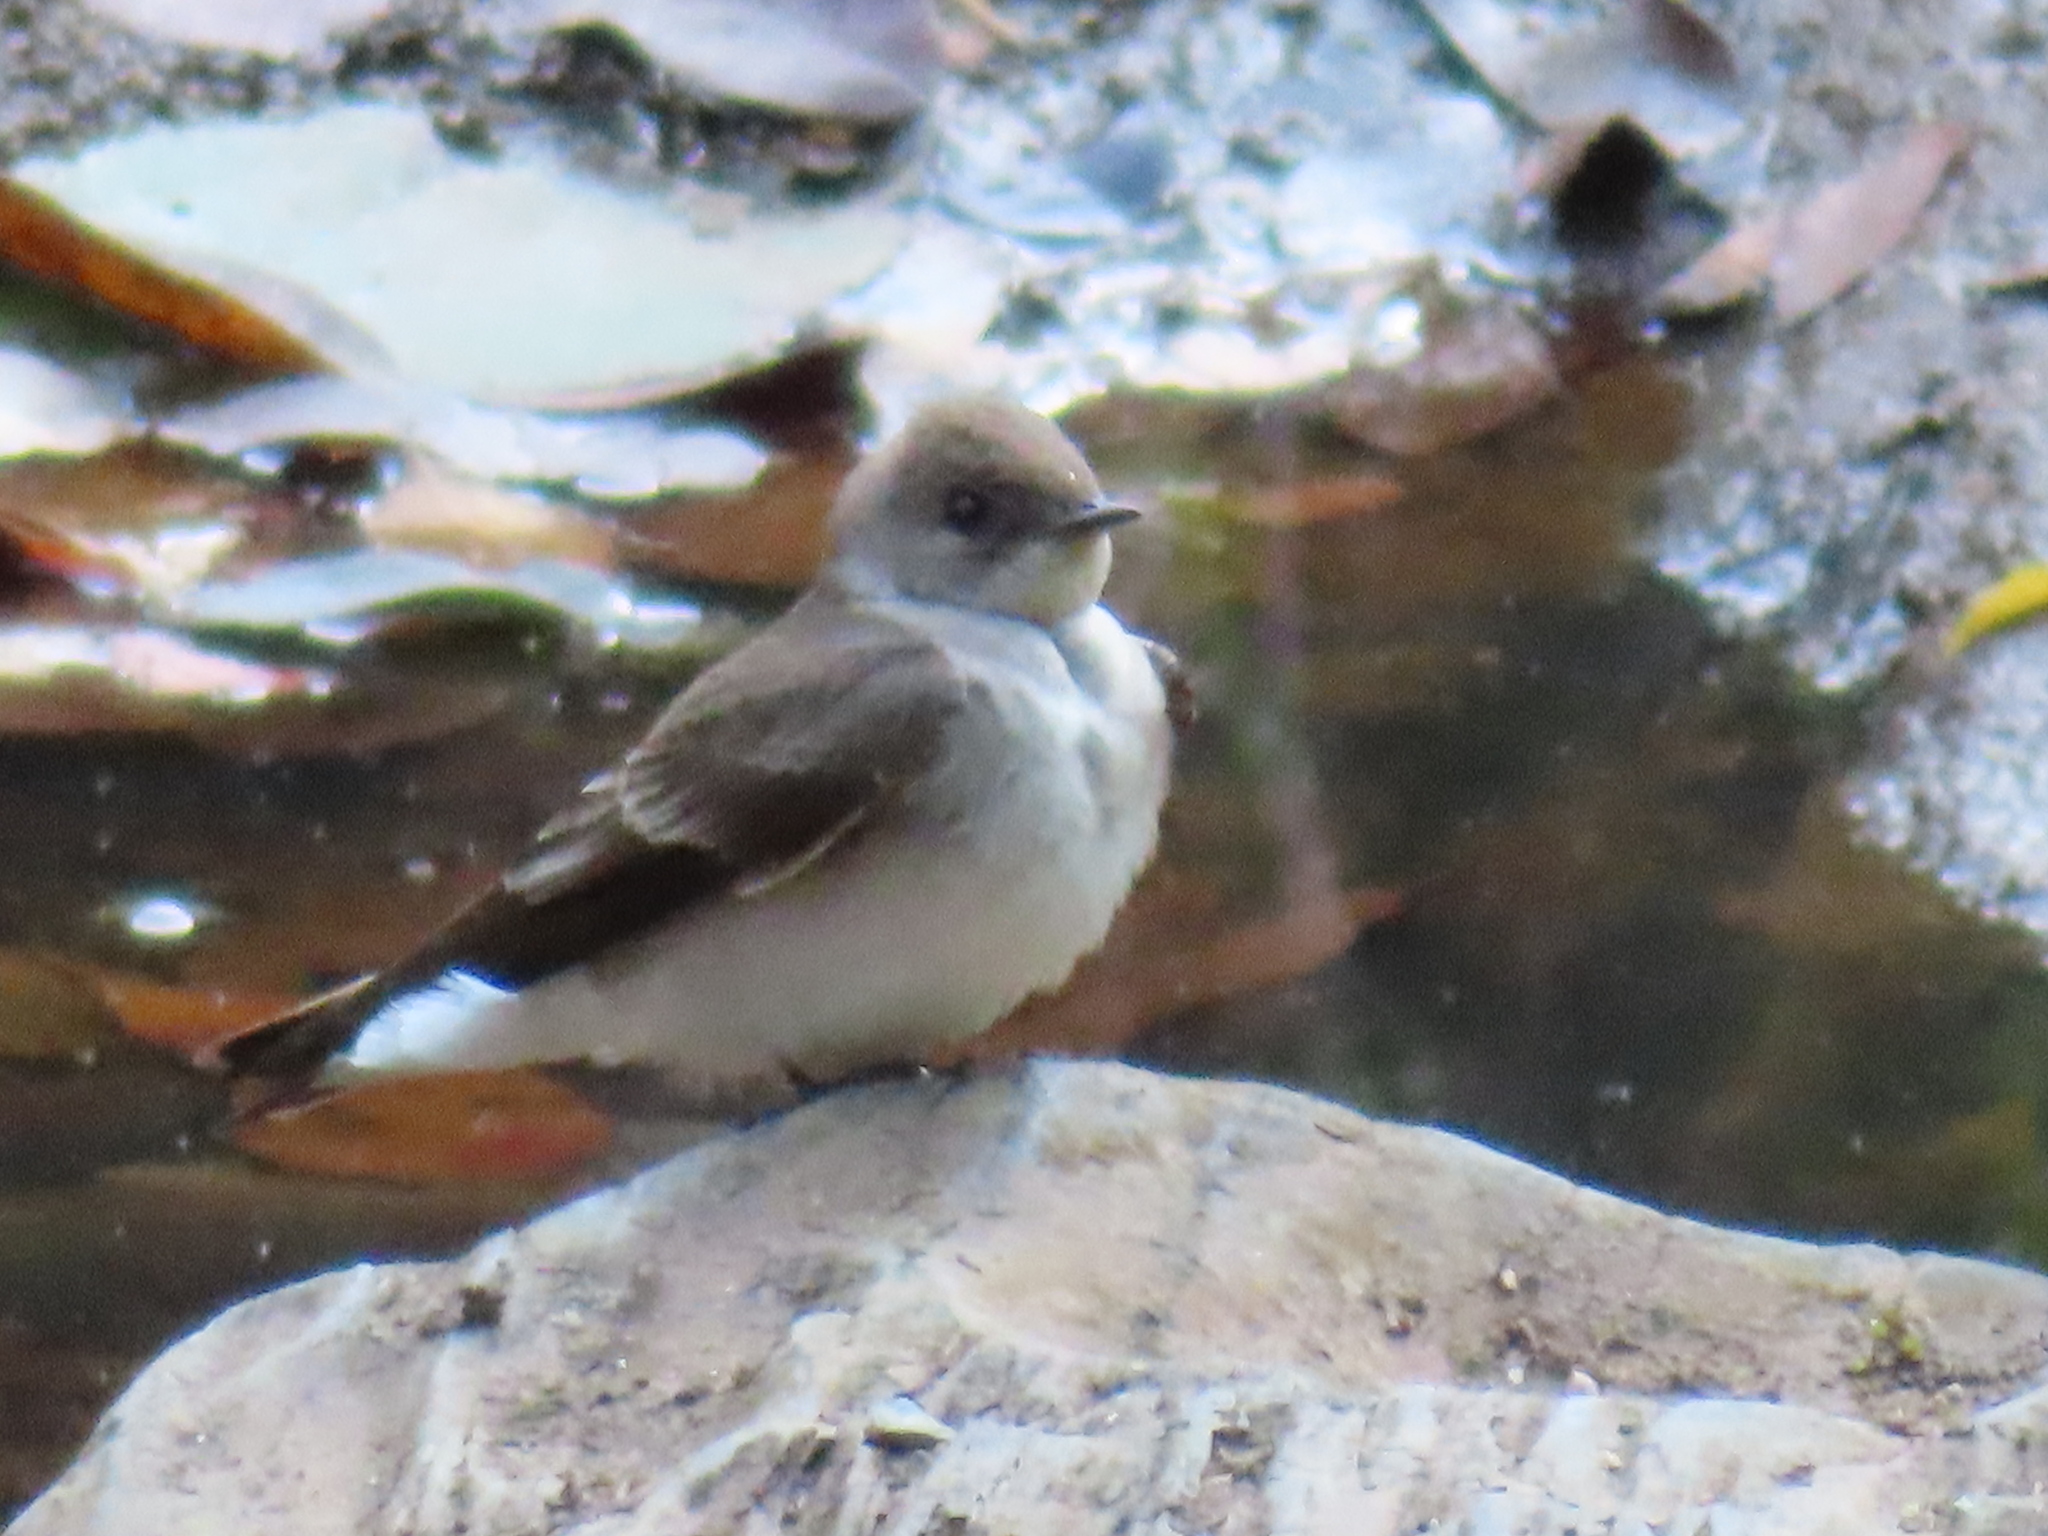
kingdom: Animalia
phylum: Chordata
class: Aves
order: Passeriformes
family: Hirundinidae
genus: Stelgidopteryx
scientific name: Stelgidopteryx serripennis
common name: Northern rough-winged swallow
